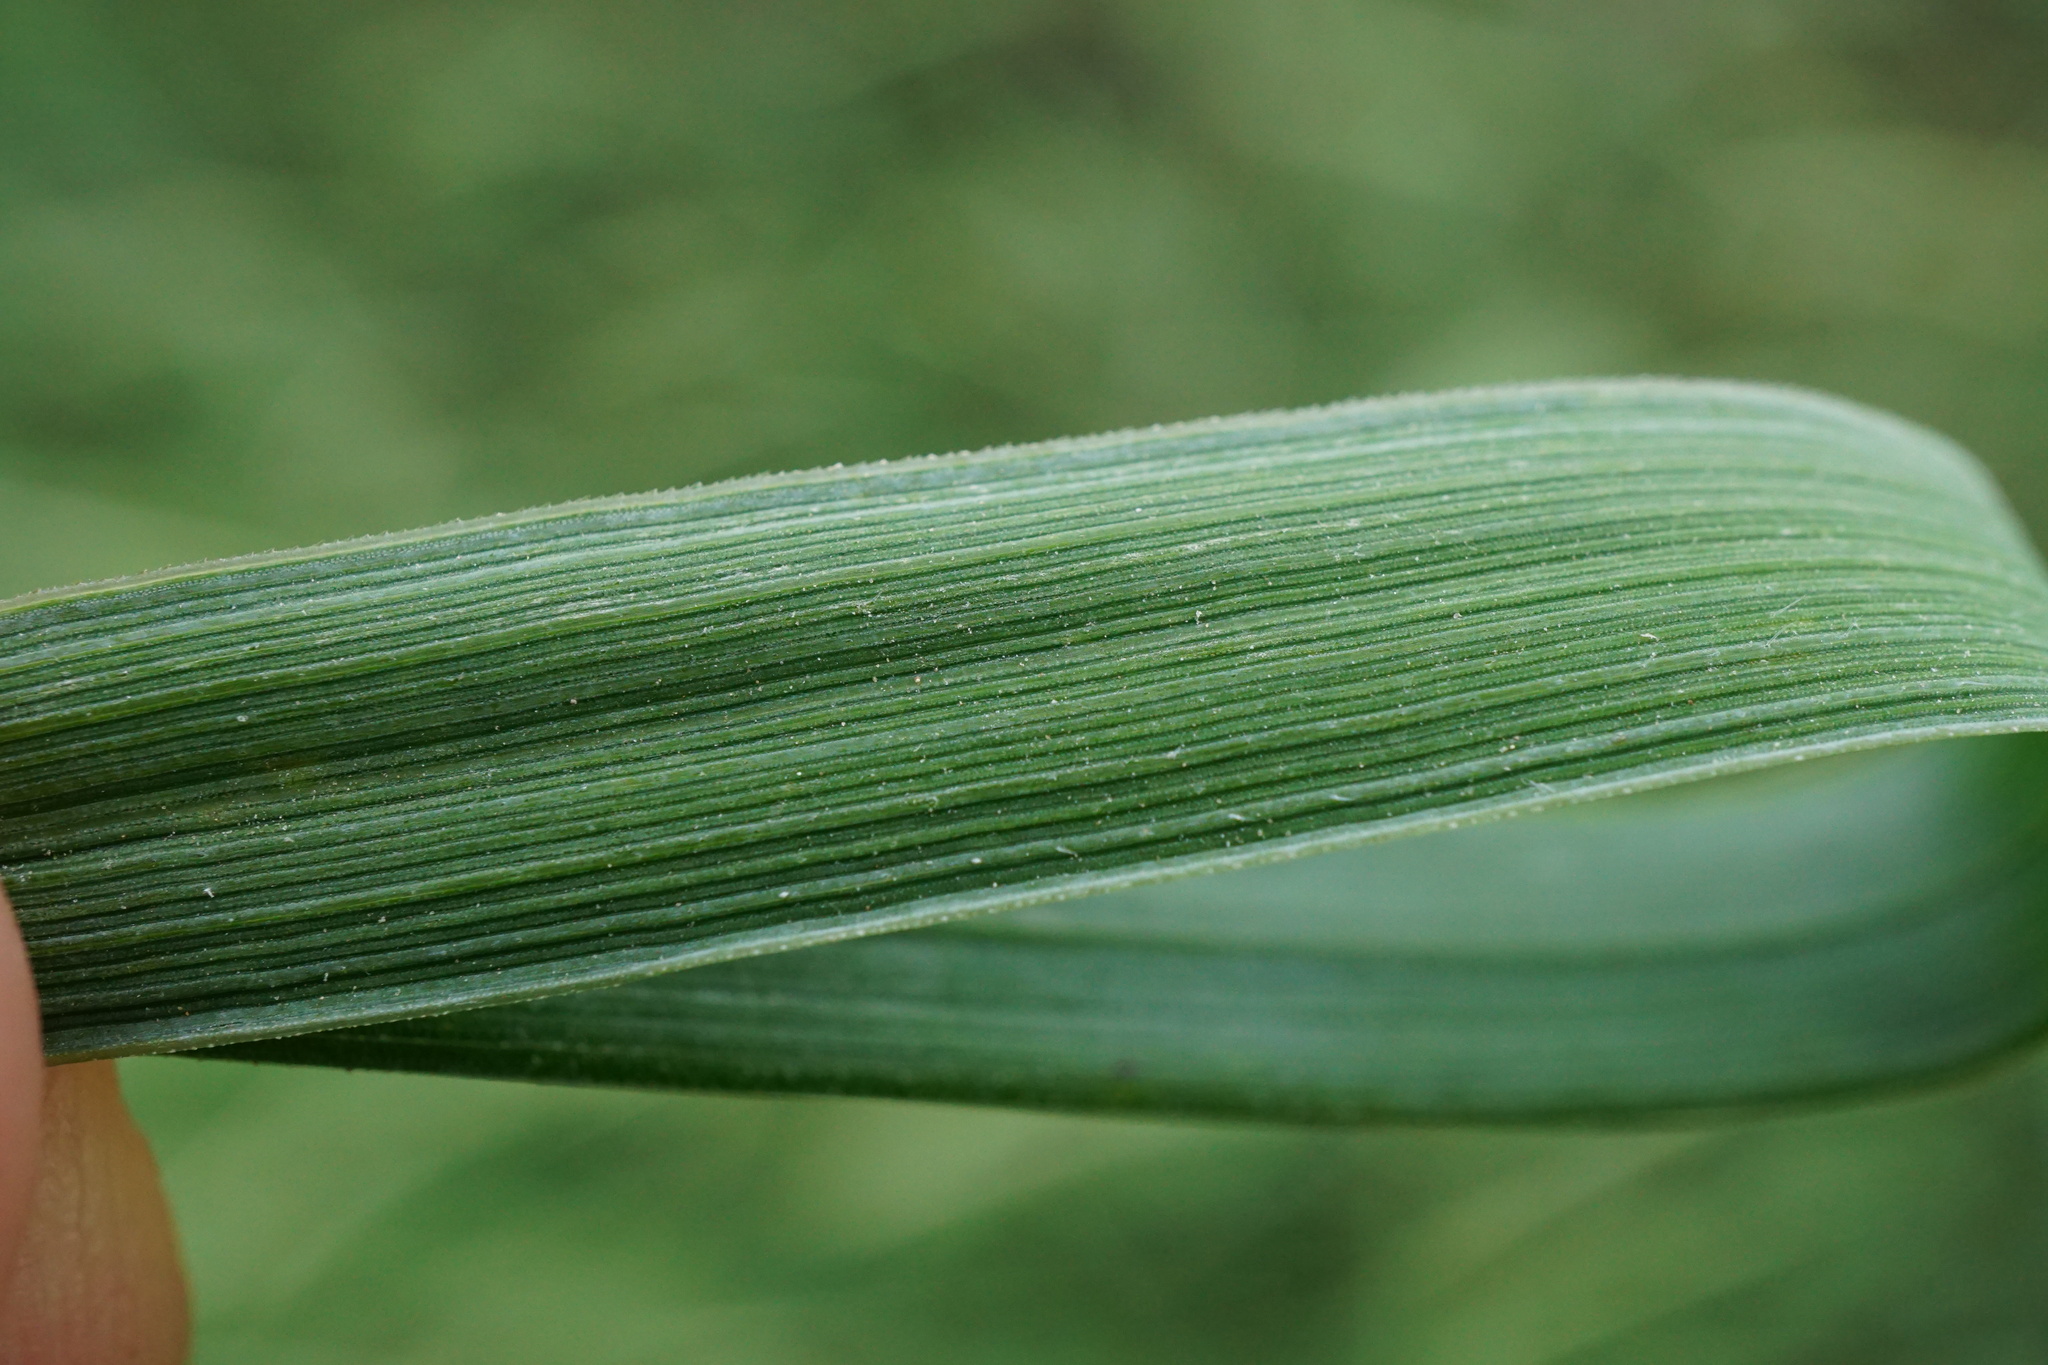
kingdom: Plantae
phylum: Tracheophyta
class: Liliopsida
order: Poales
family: Poaceae
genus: Elymus
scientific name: Elymus repens
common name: Quackgrass
